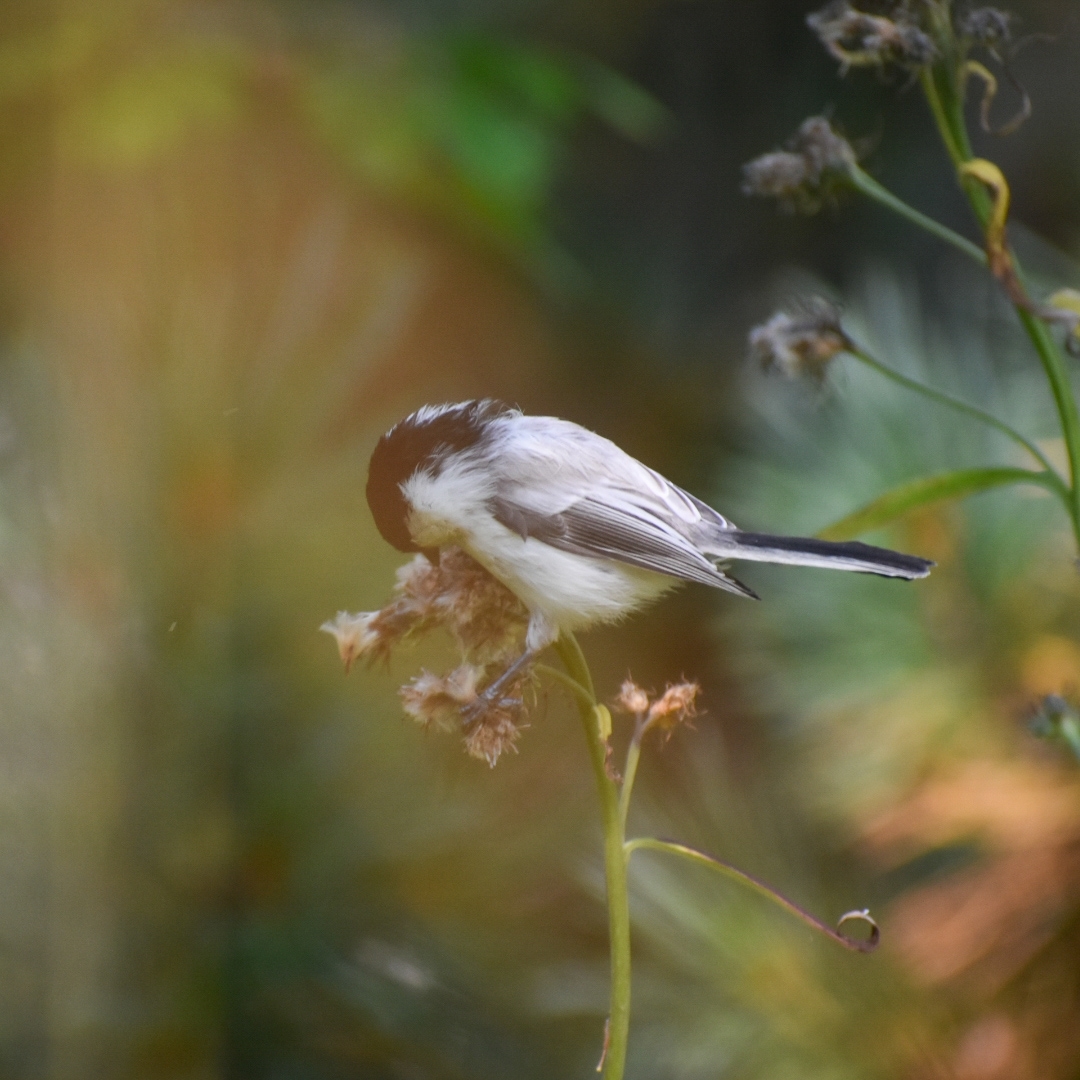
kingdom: Animalia
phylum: Chordata
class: Aves
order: Passeriformes
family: Paridae
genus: Poecile
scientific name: Poecile montanus
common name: Willow tit
